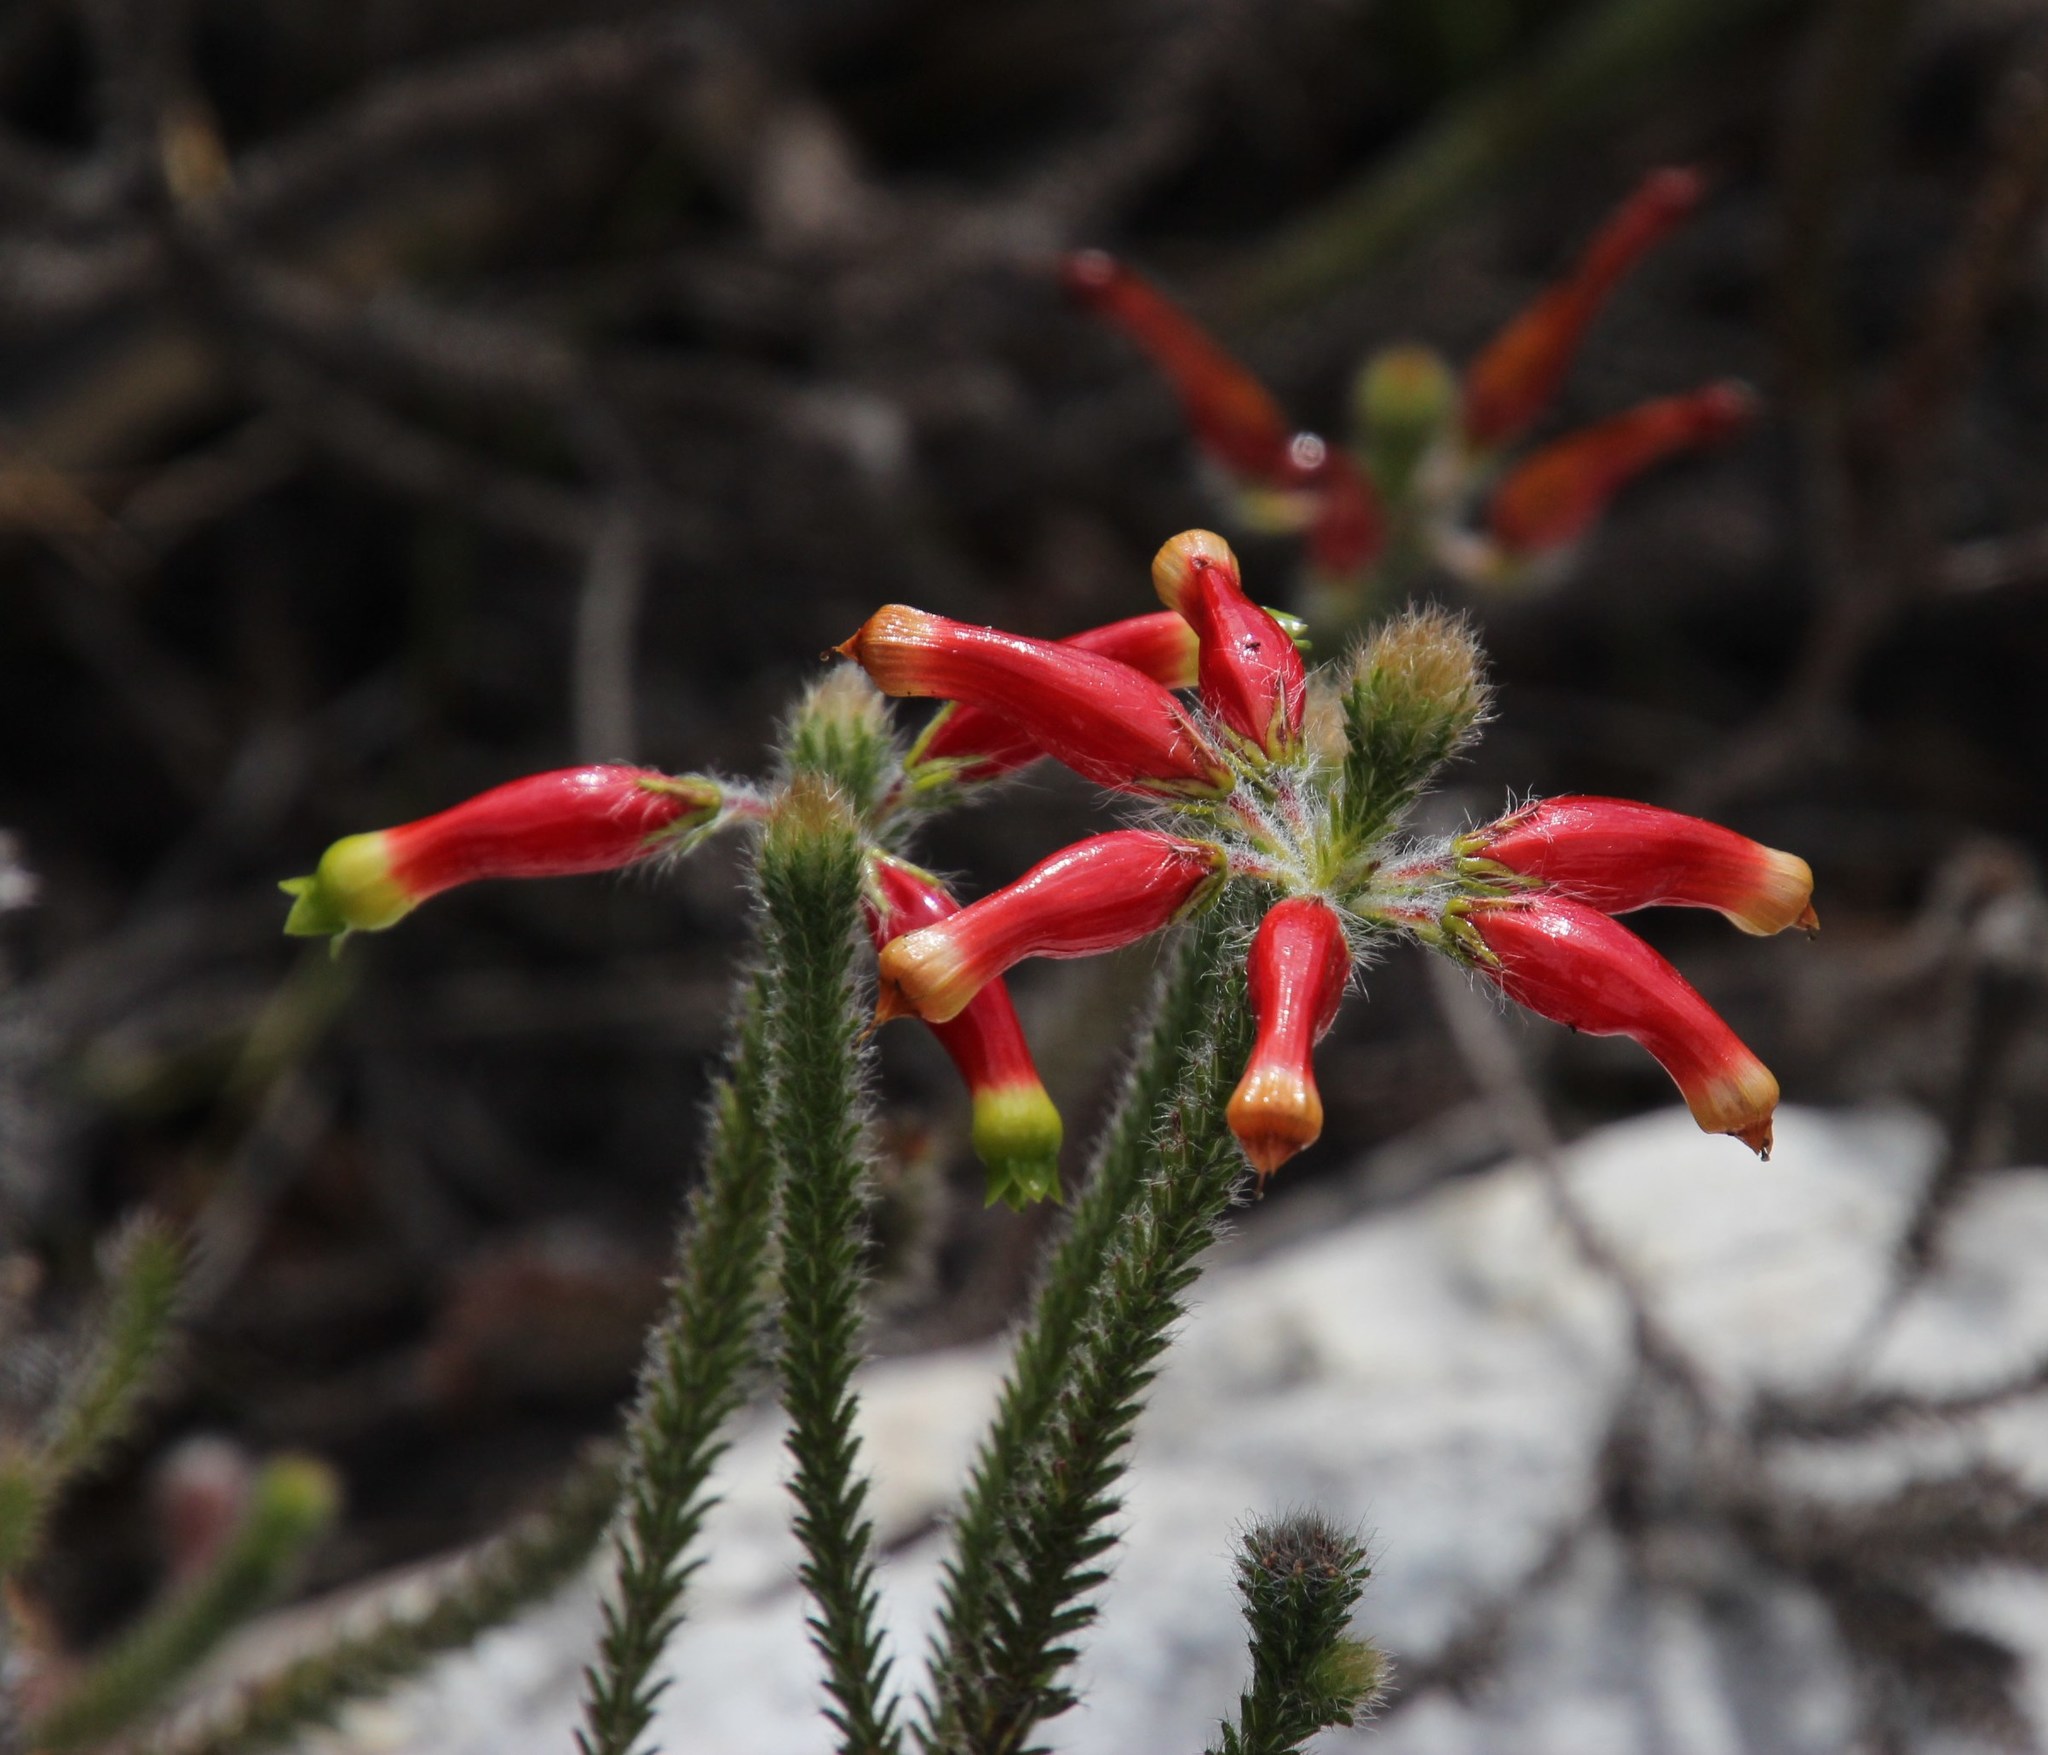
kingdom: Plantae
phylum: Tracheophyta
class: Magnoliopsida
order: Ericales
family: Ericaceae
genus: Erica
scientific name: Erica massonii
